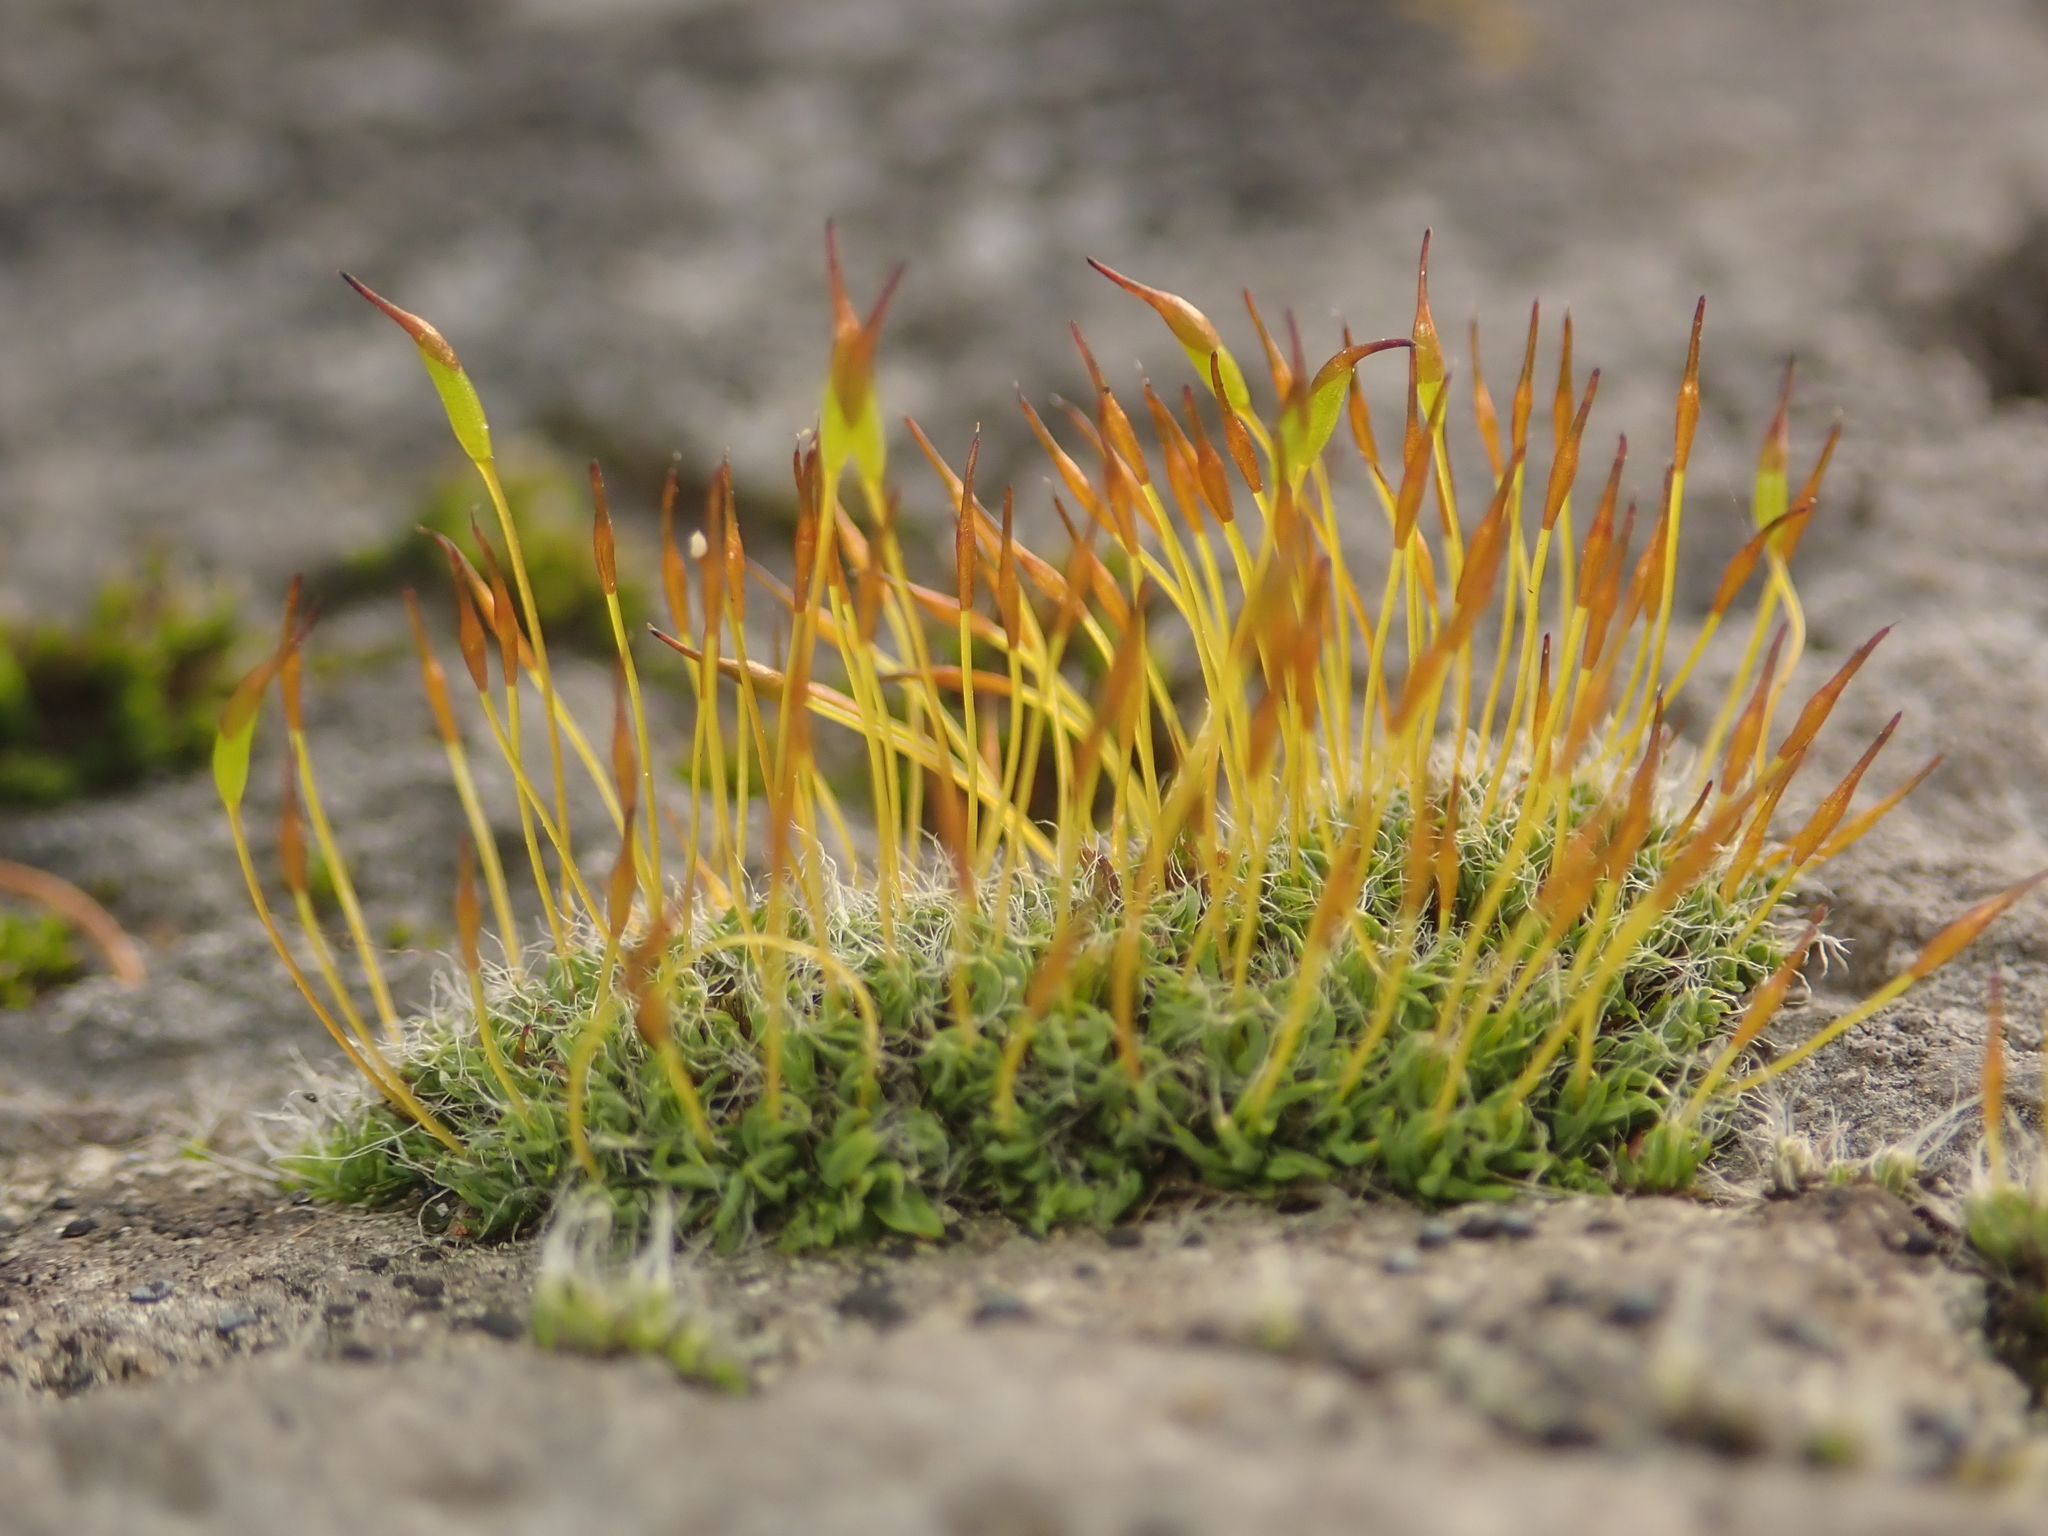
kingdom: Plantae
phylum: Bryophyta
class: Bryopsida
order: Pottiales
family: Pottiaceae
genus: Tortula
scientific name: Tortula muralis
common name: Wall screw-moss
